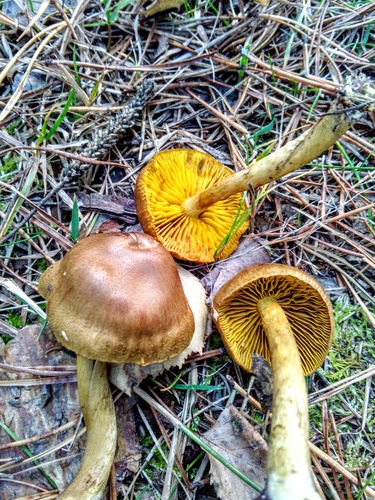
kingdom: Fungi
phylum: Basidiomycota
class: Agaricomycetes
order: Agaricales
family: Cortinariaceae
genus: Cortinarius
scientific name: Cortinarius
